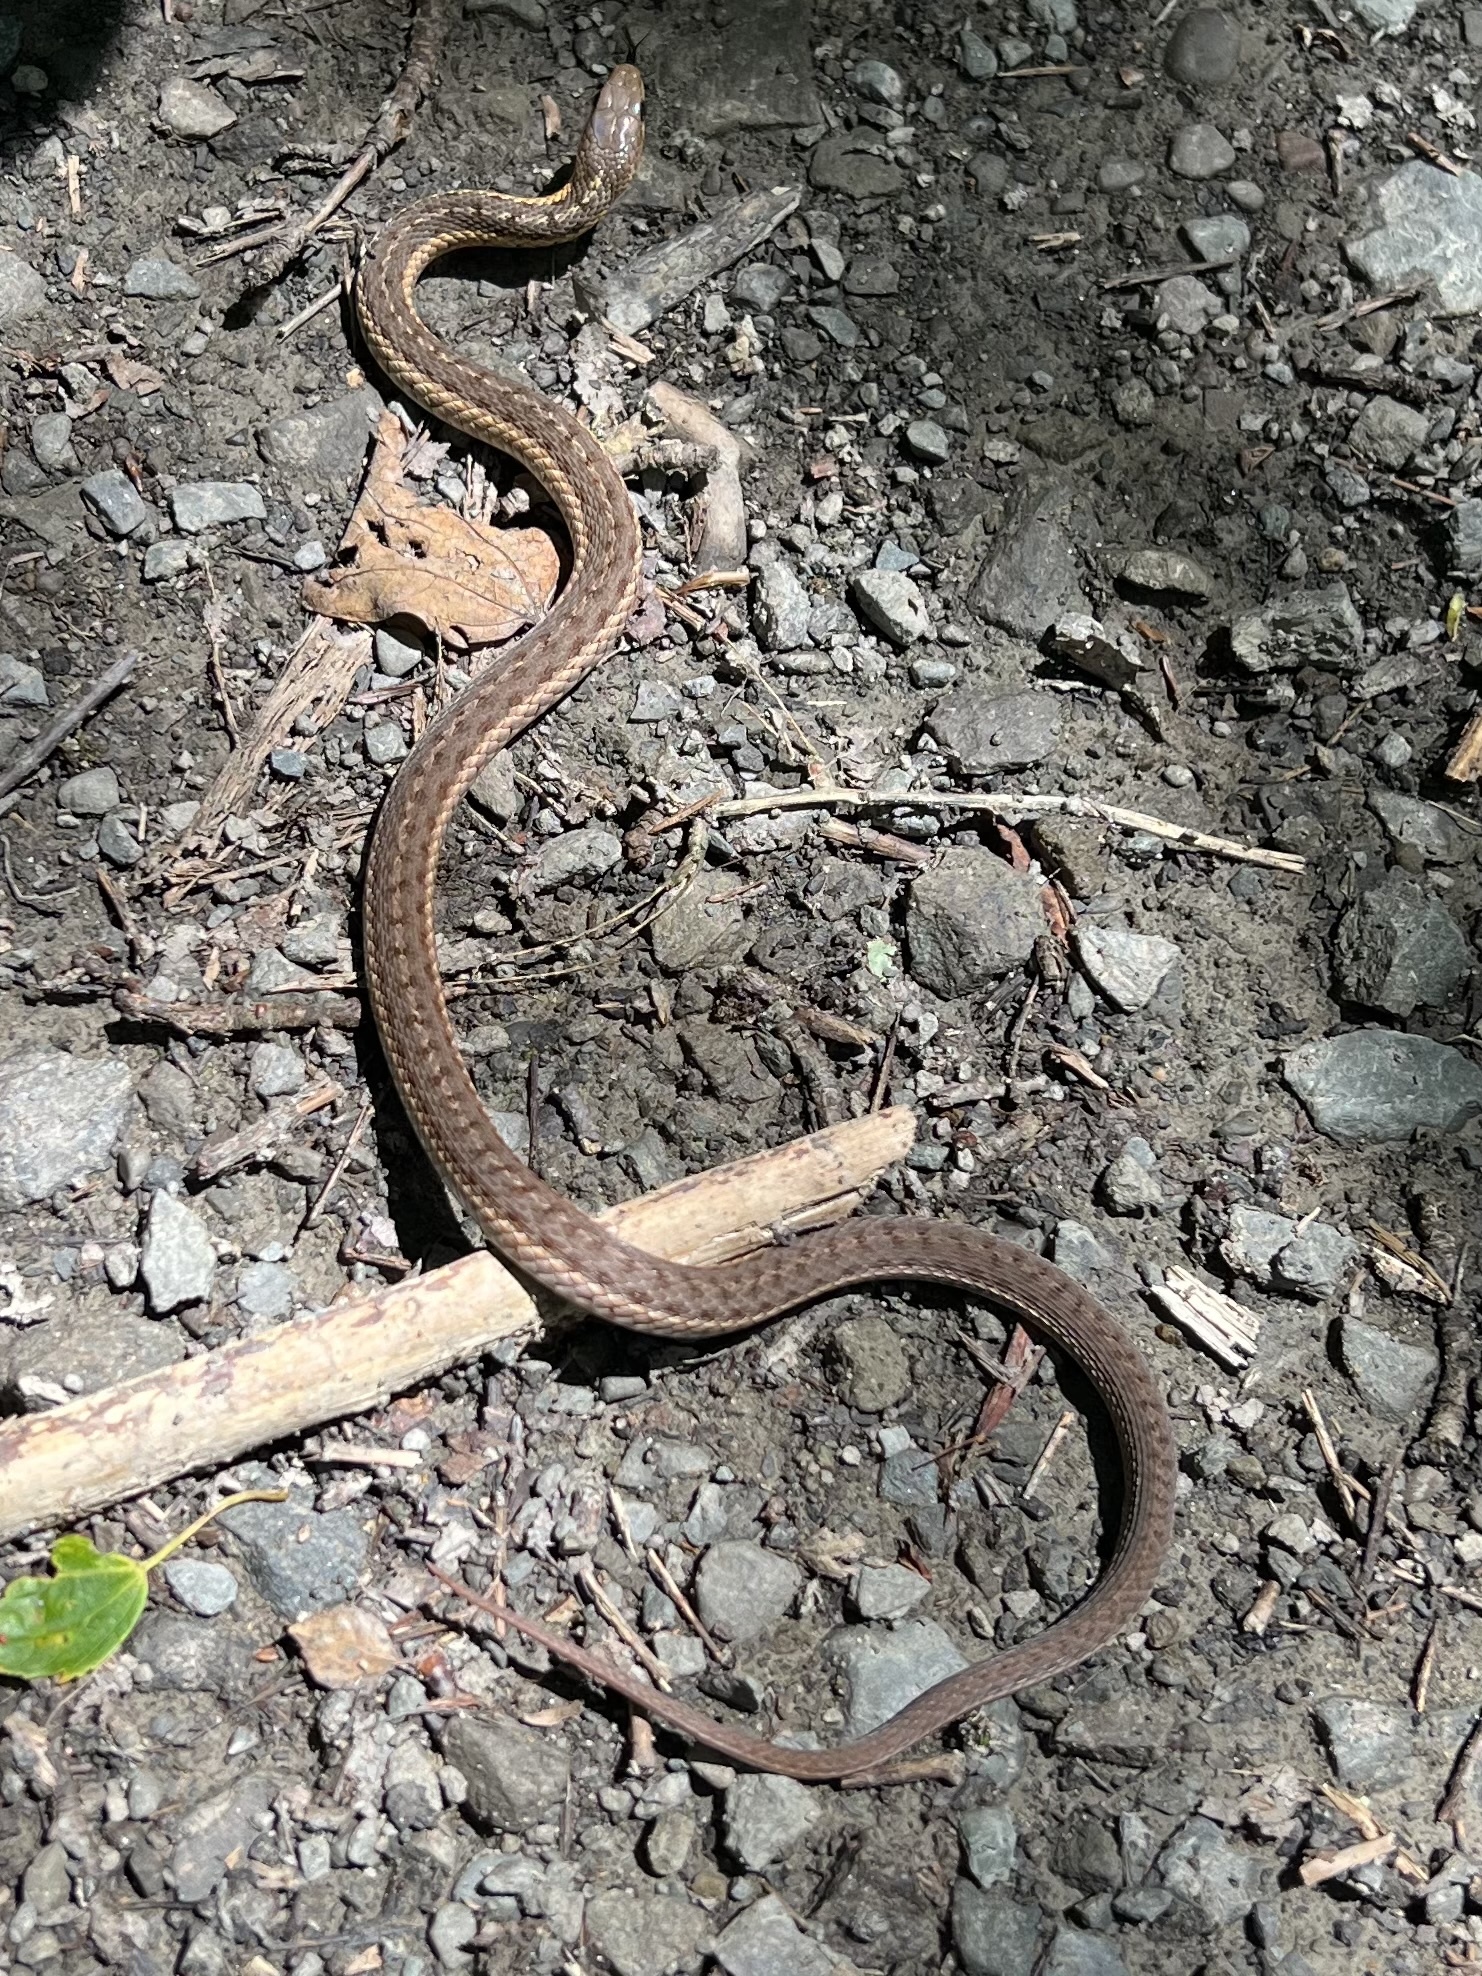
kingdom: Animalia
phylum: Chordata
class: Squamata
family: Colubridae
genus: Thamnophis
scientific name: Thamnophis sirtalis
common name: Common garter snake
